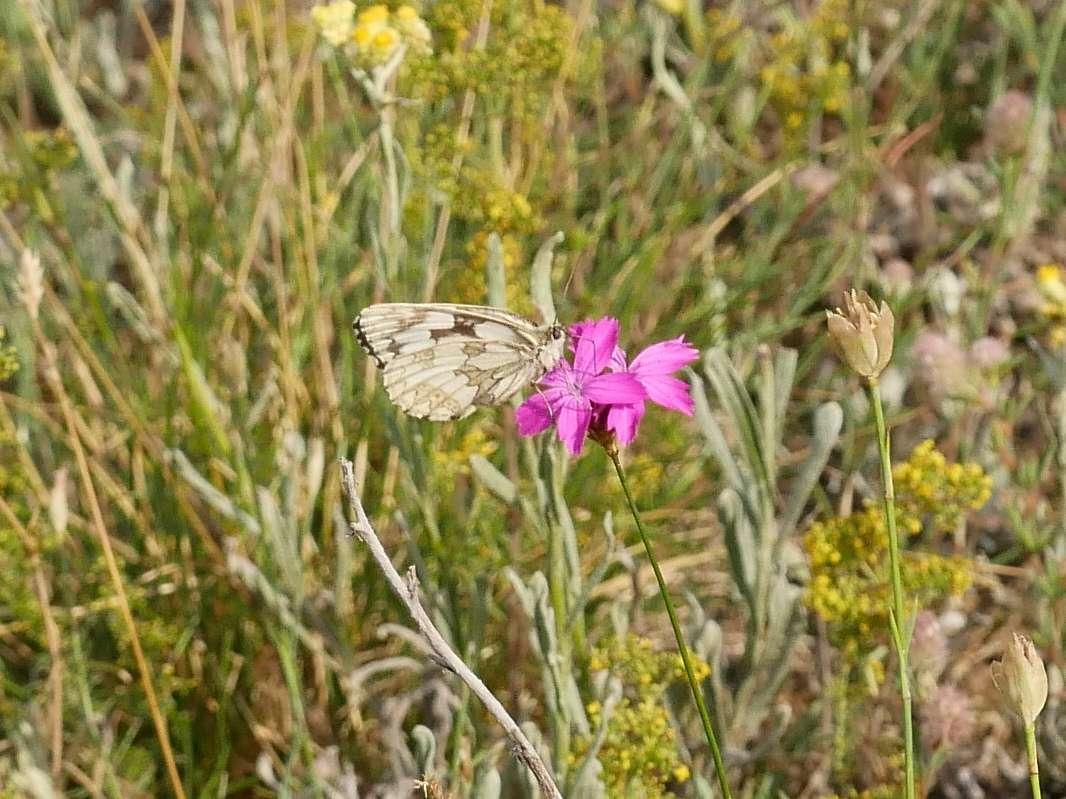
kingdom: Animalia
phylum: Arthropoda
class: Insecta
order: Lepidoptera
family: Nymphalidae
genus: Melanargia
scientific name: Melanargia galathea
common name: Marbled white
